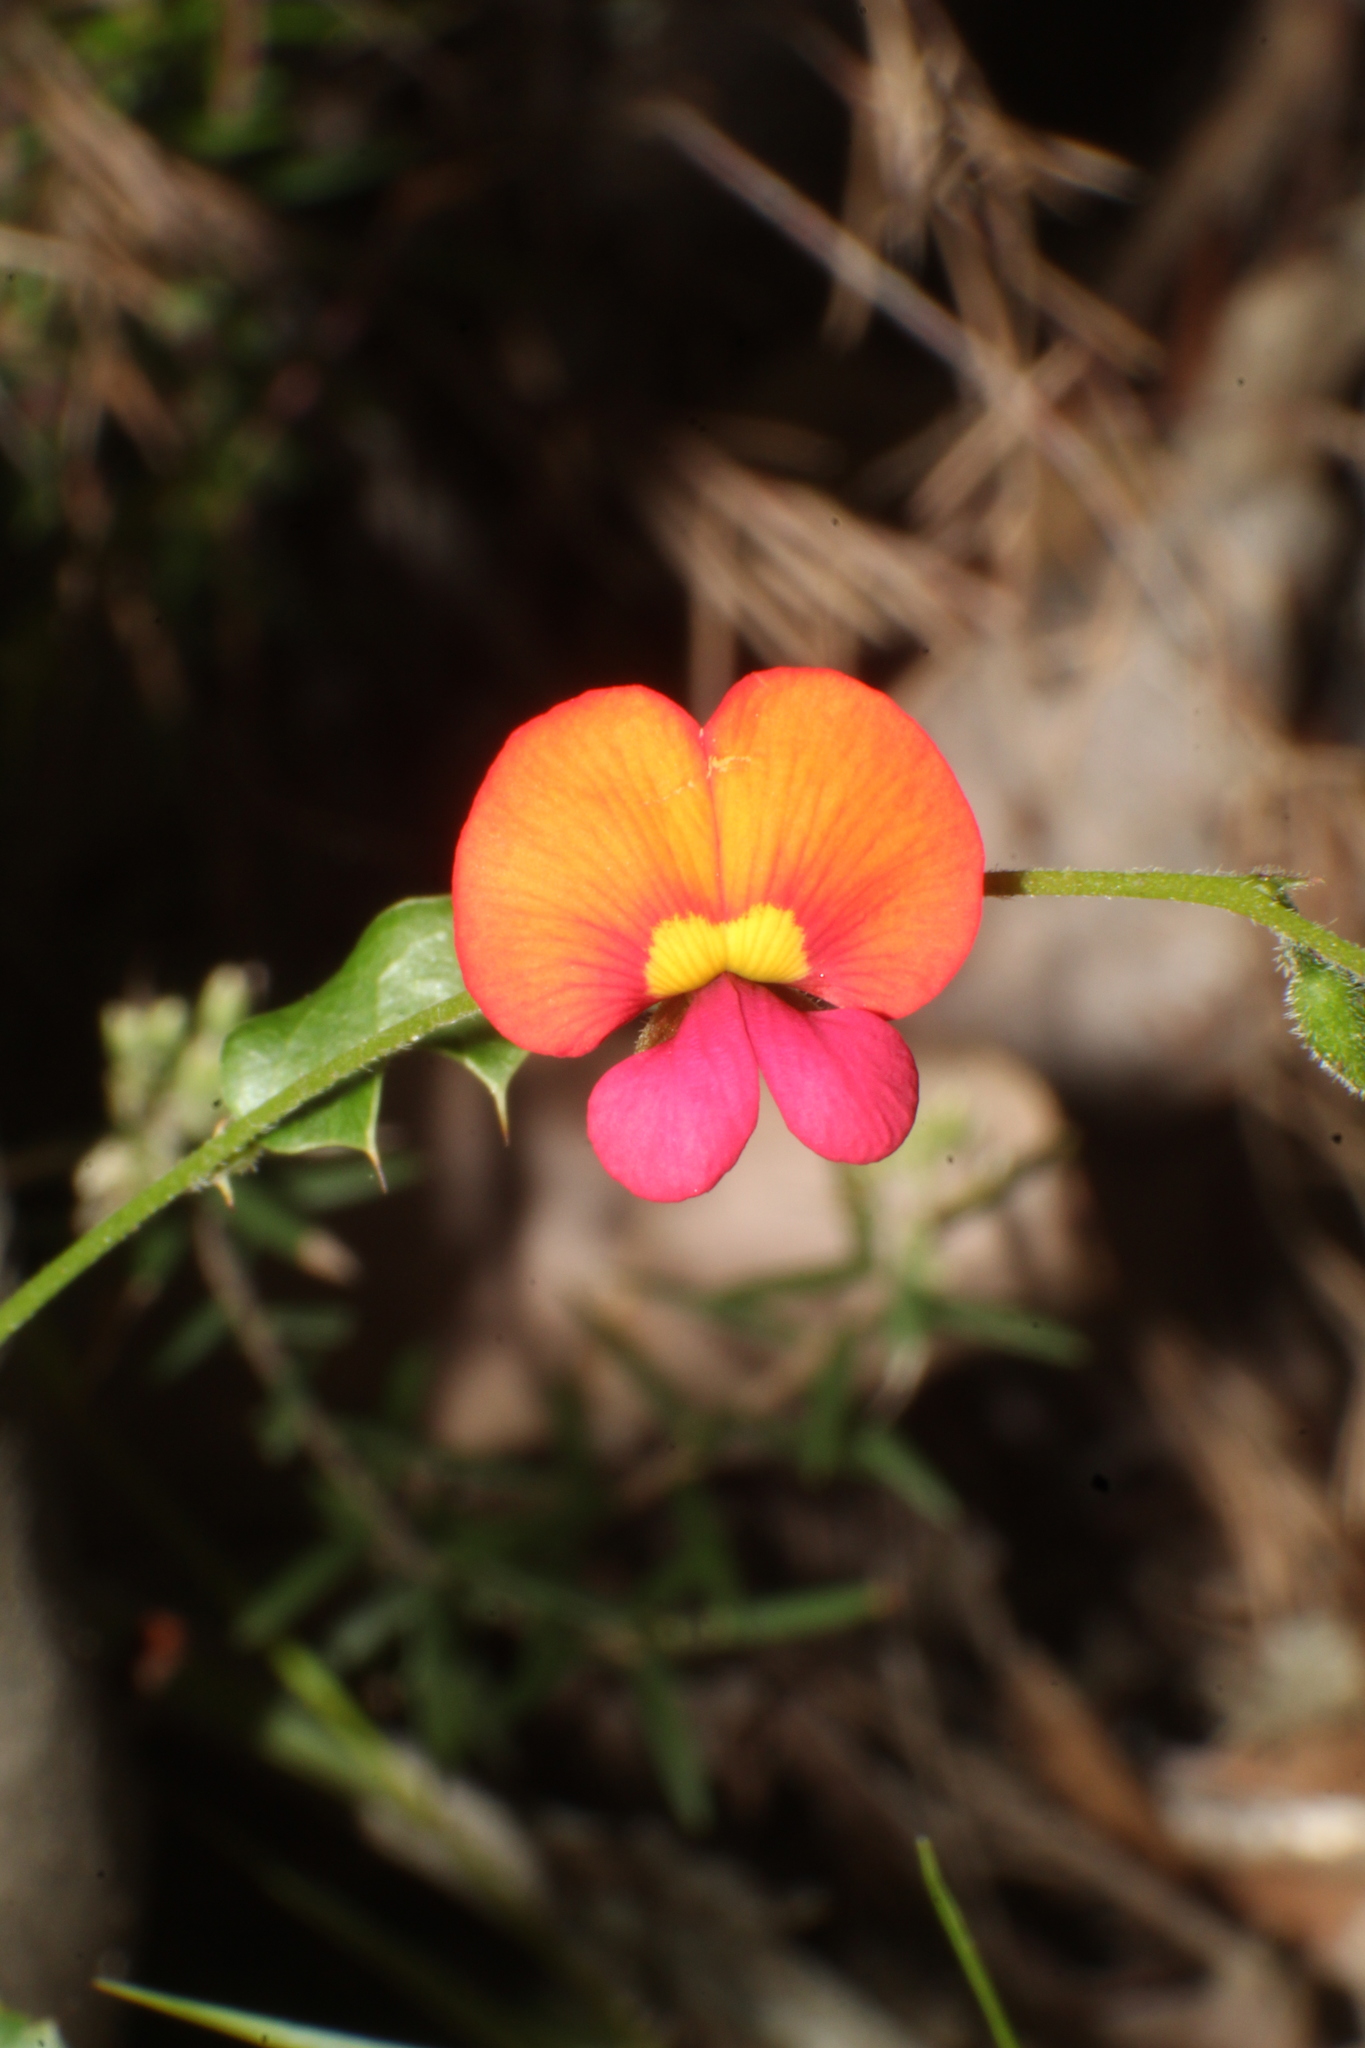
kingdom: Plantae
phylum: Tracheophyta
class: Magnoliopsida
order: Fabales
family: Fabaceae
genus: Chorizema
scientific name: Chorizema ilicifolium
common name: Holly flame-pea
